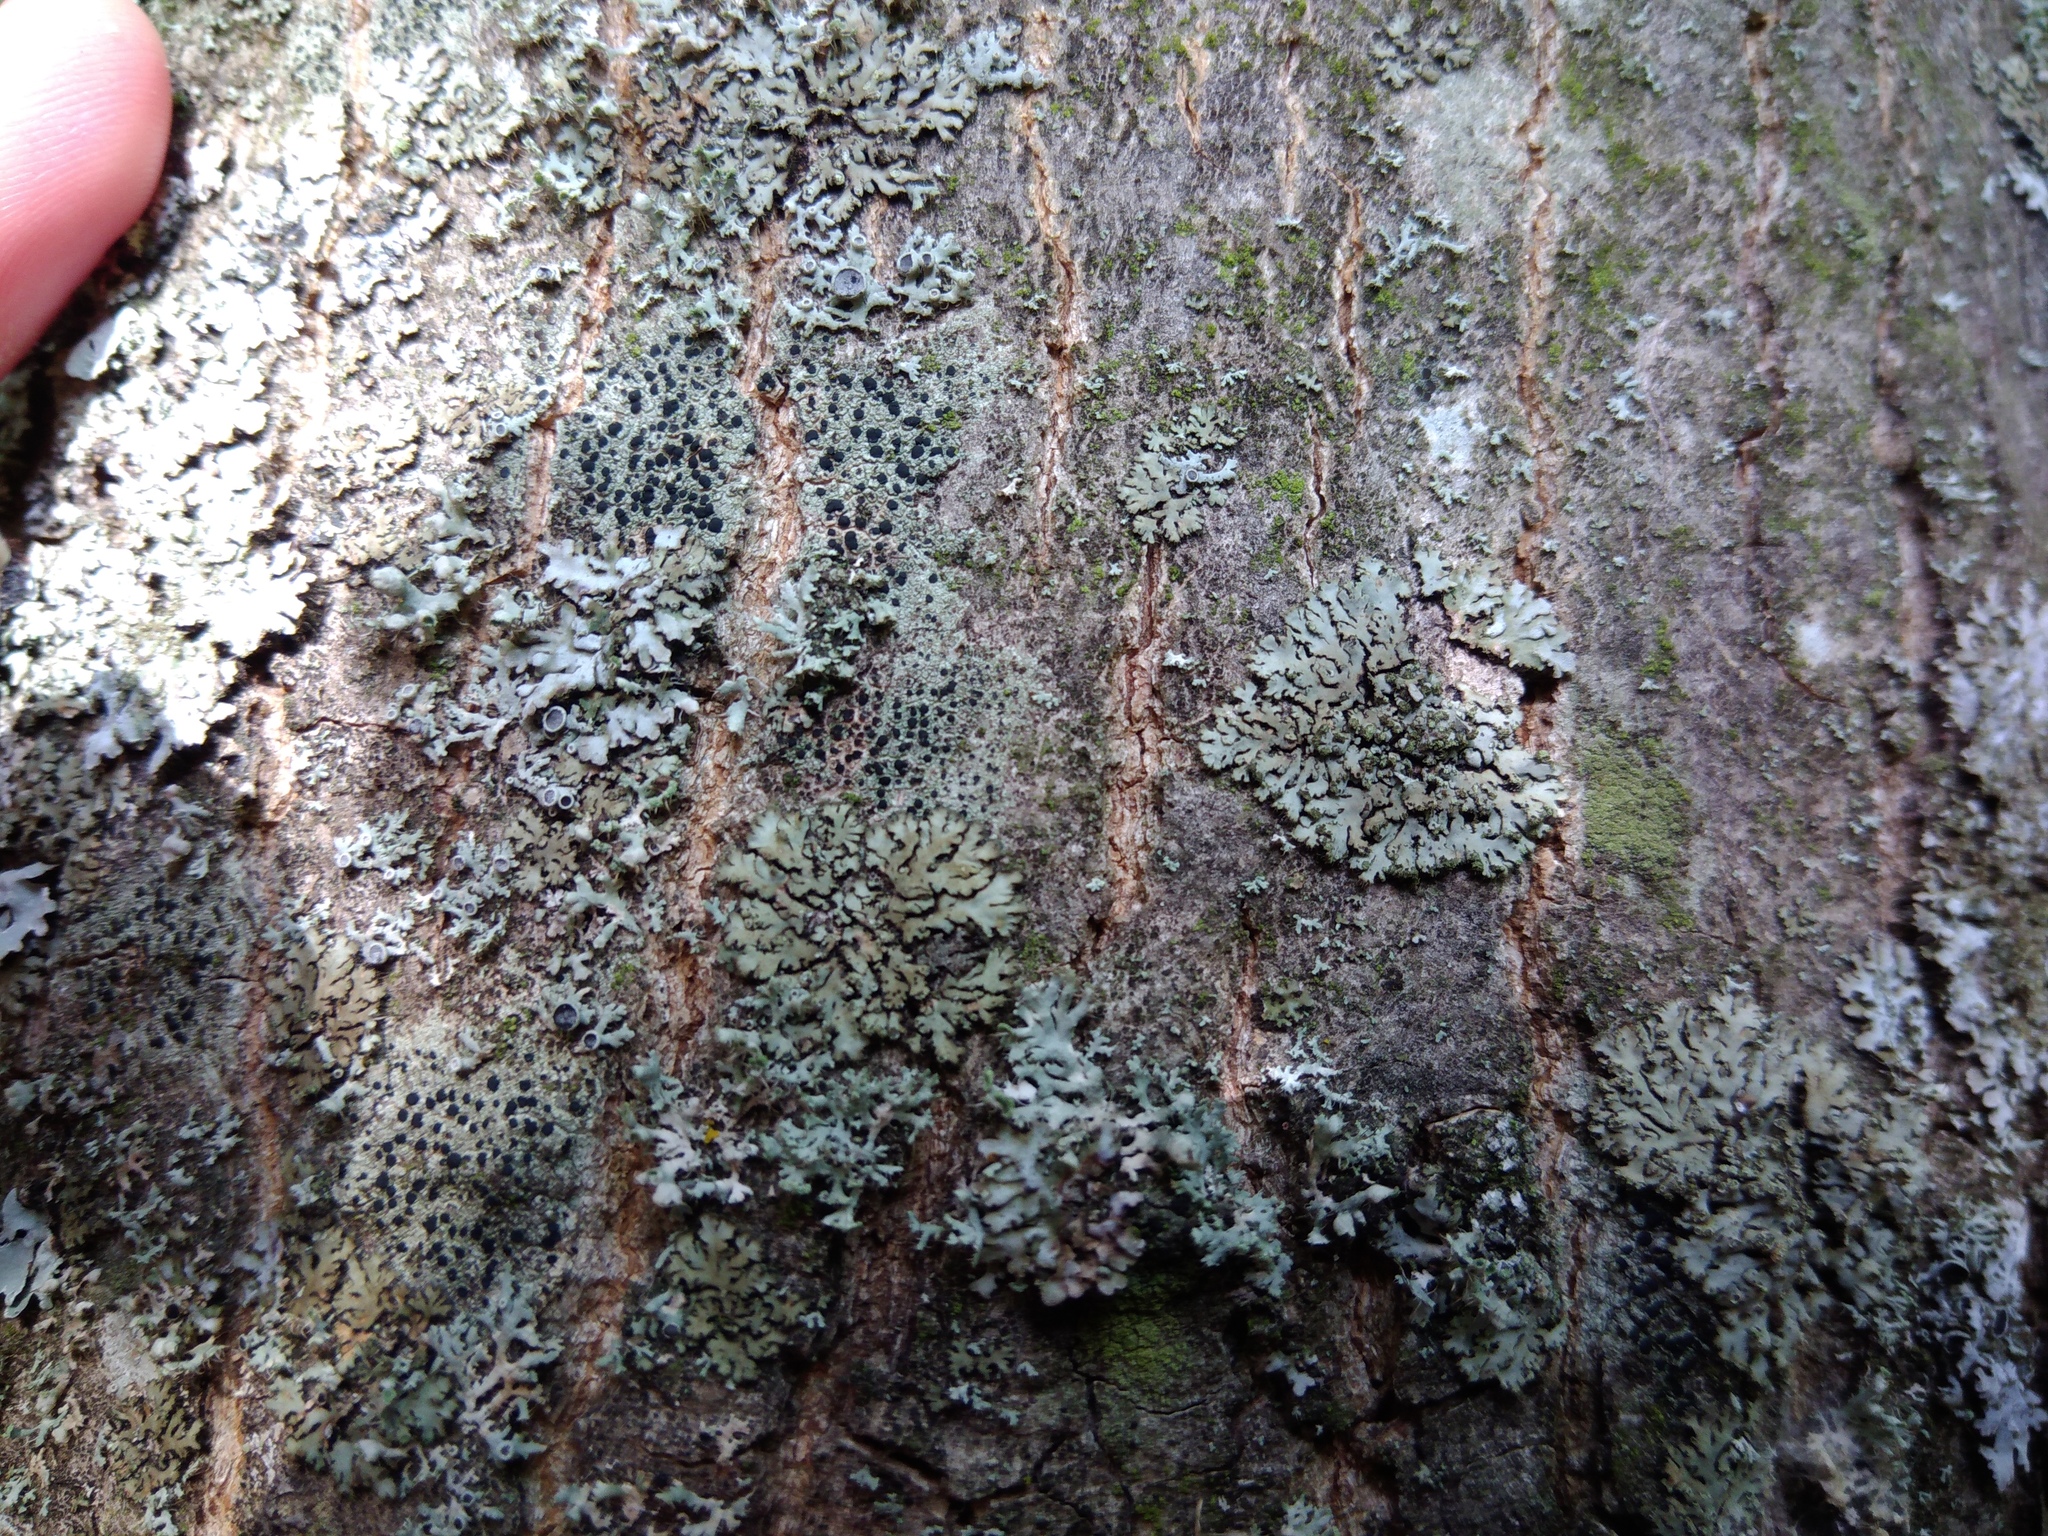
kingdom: Fungi
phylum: Ascomycota
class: Lecanoromycetes
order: Caliciales
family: Physciaceae
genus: Phaeophyscia
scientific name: Phaeophyscia orbicularis
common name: Mealy shadow lichen
